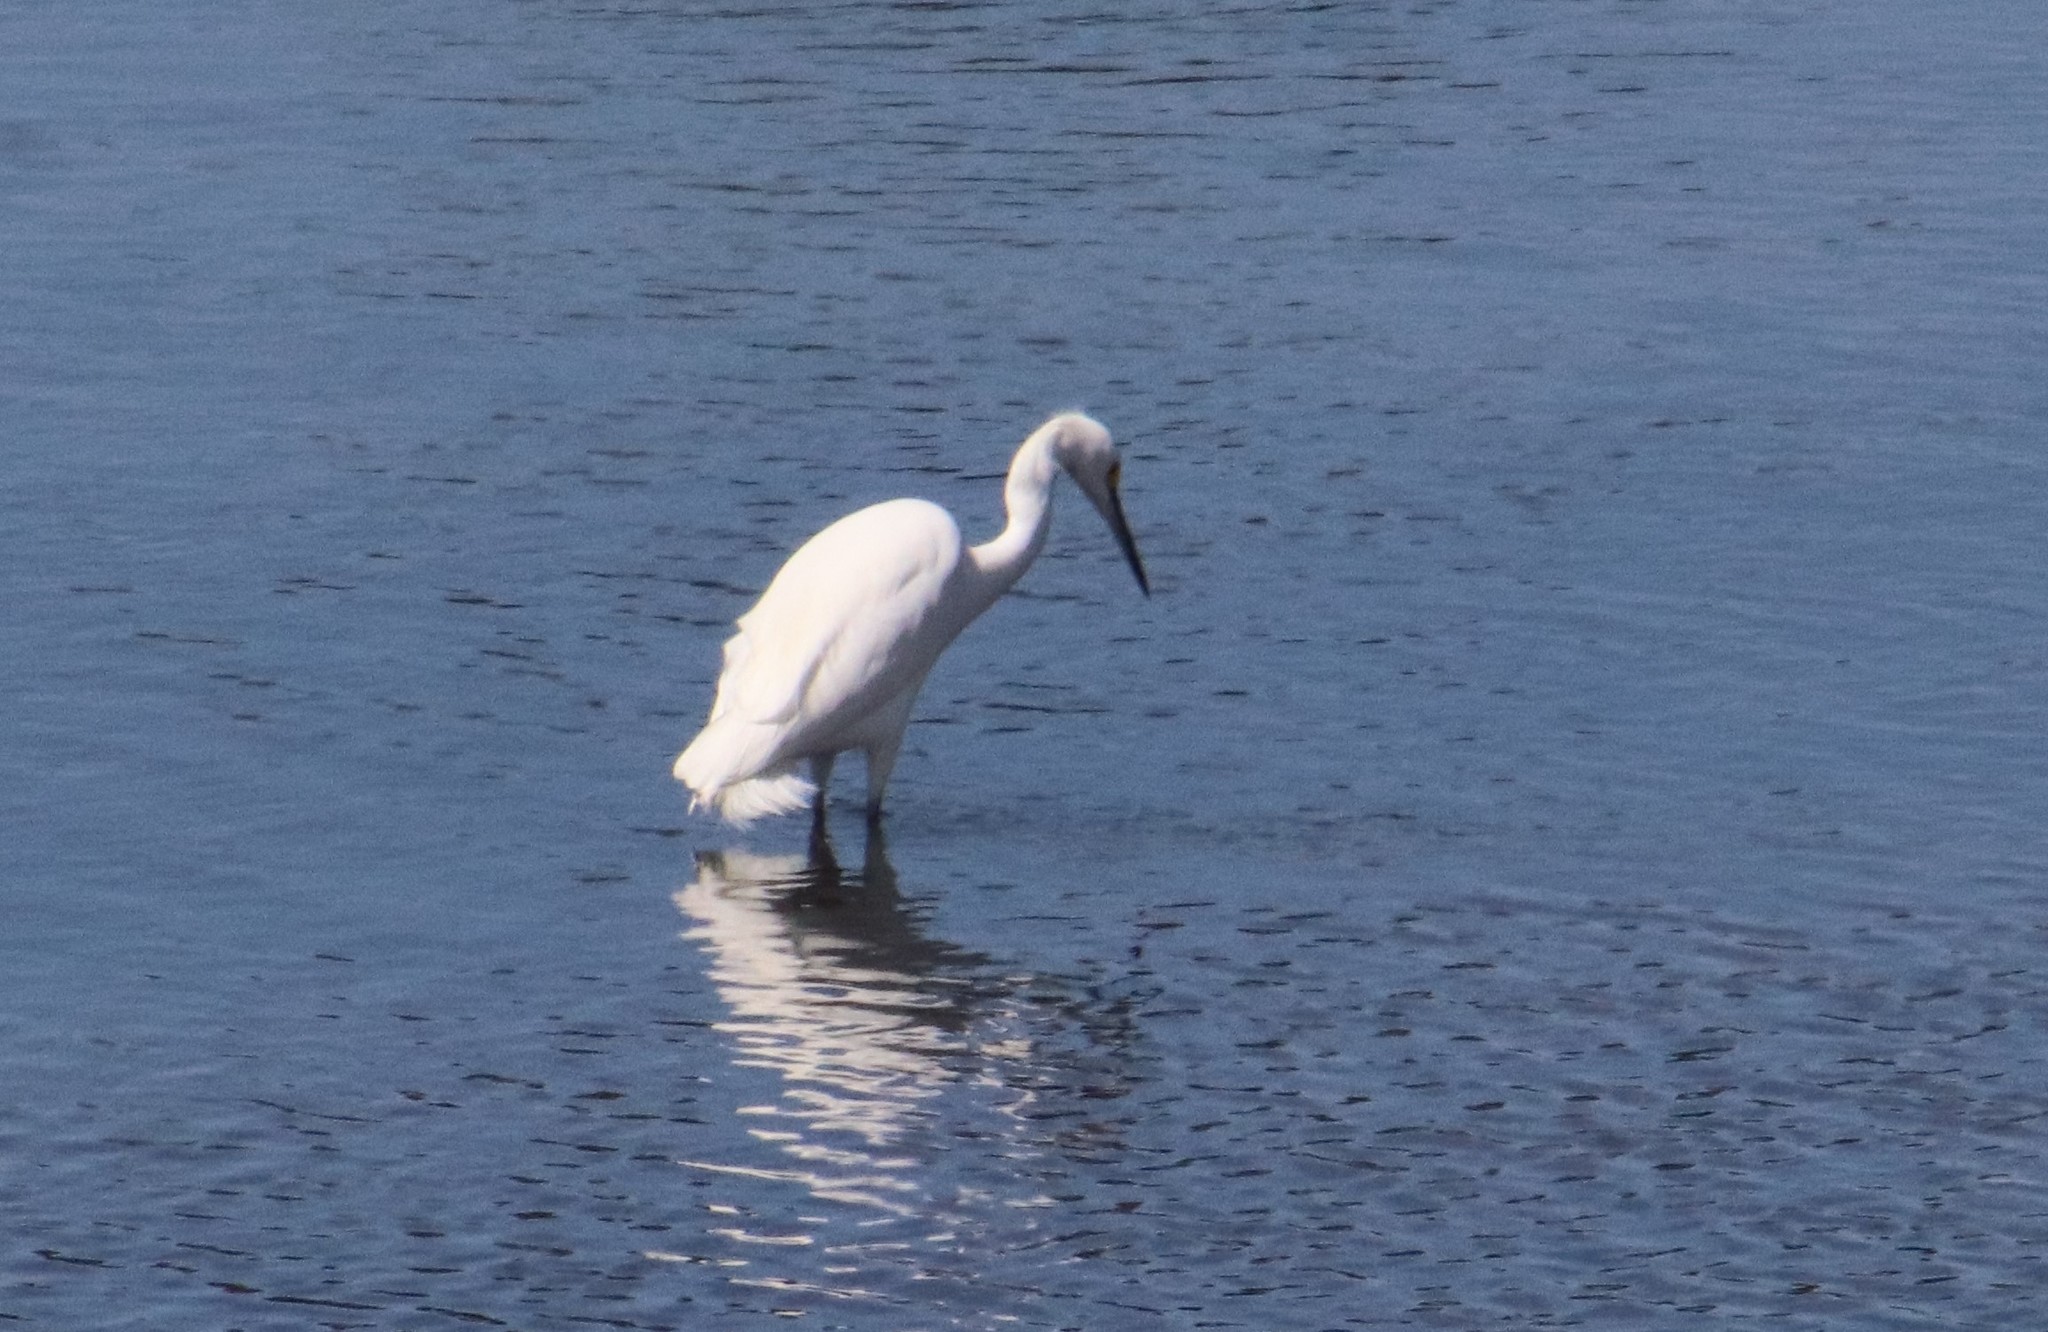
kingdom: Animalia
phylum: Chordata
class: Aves
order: Pelecaniformes
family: Ardeidae
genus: Egretta
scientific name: Egretta thula
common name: Snowy egret
